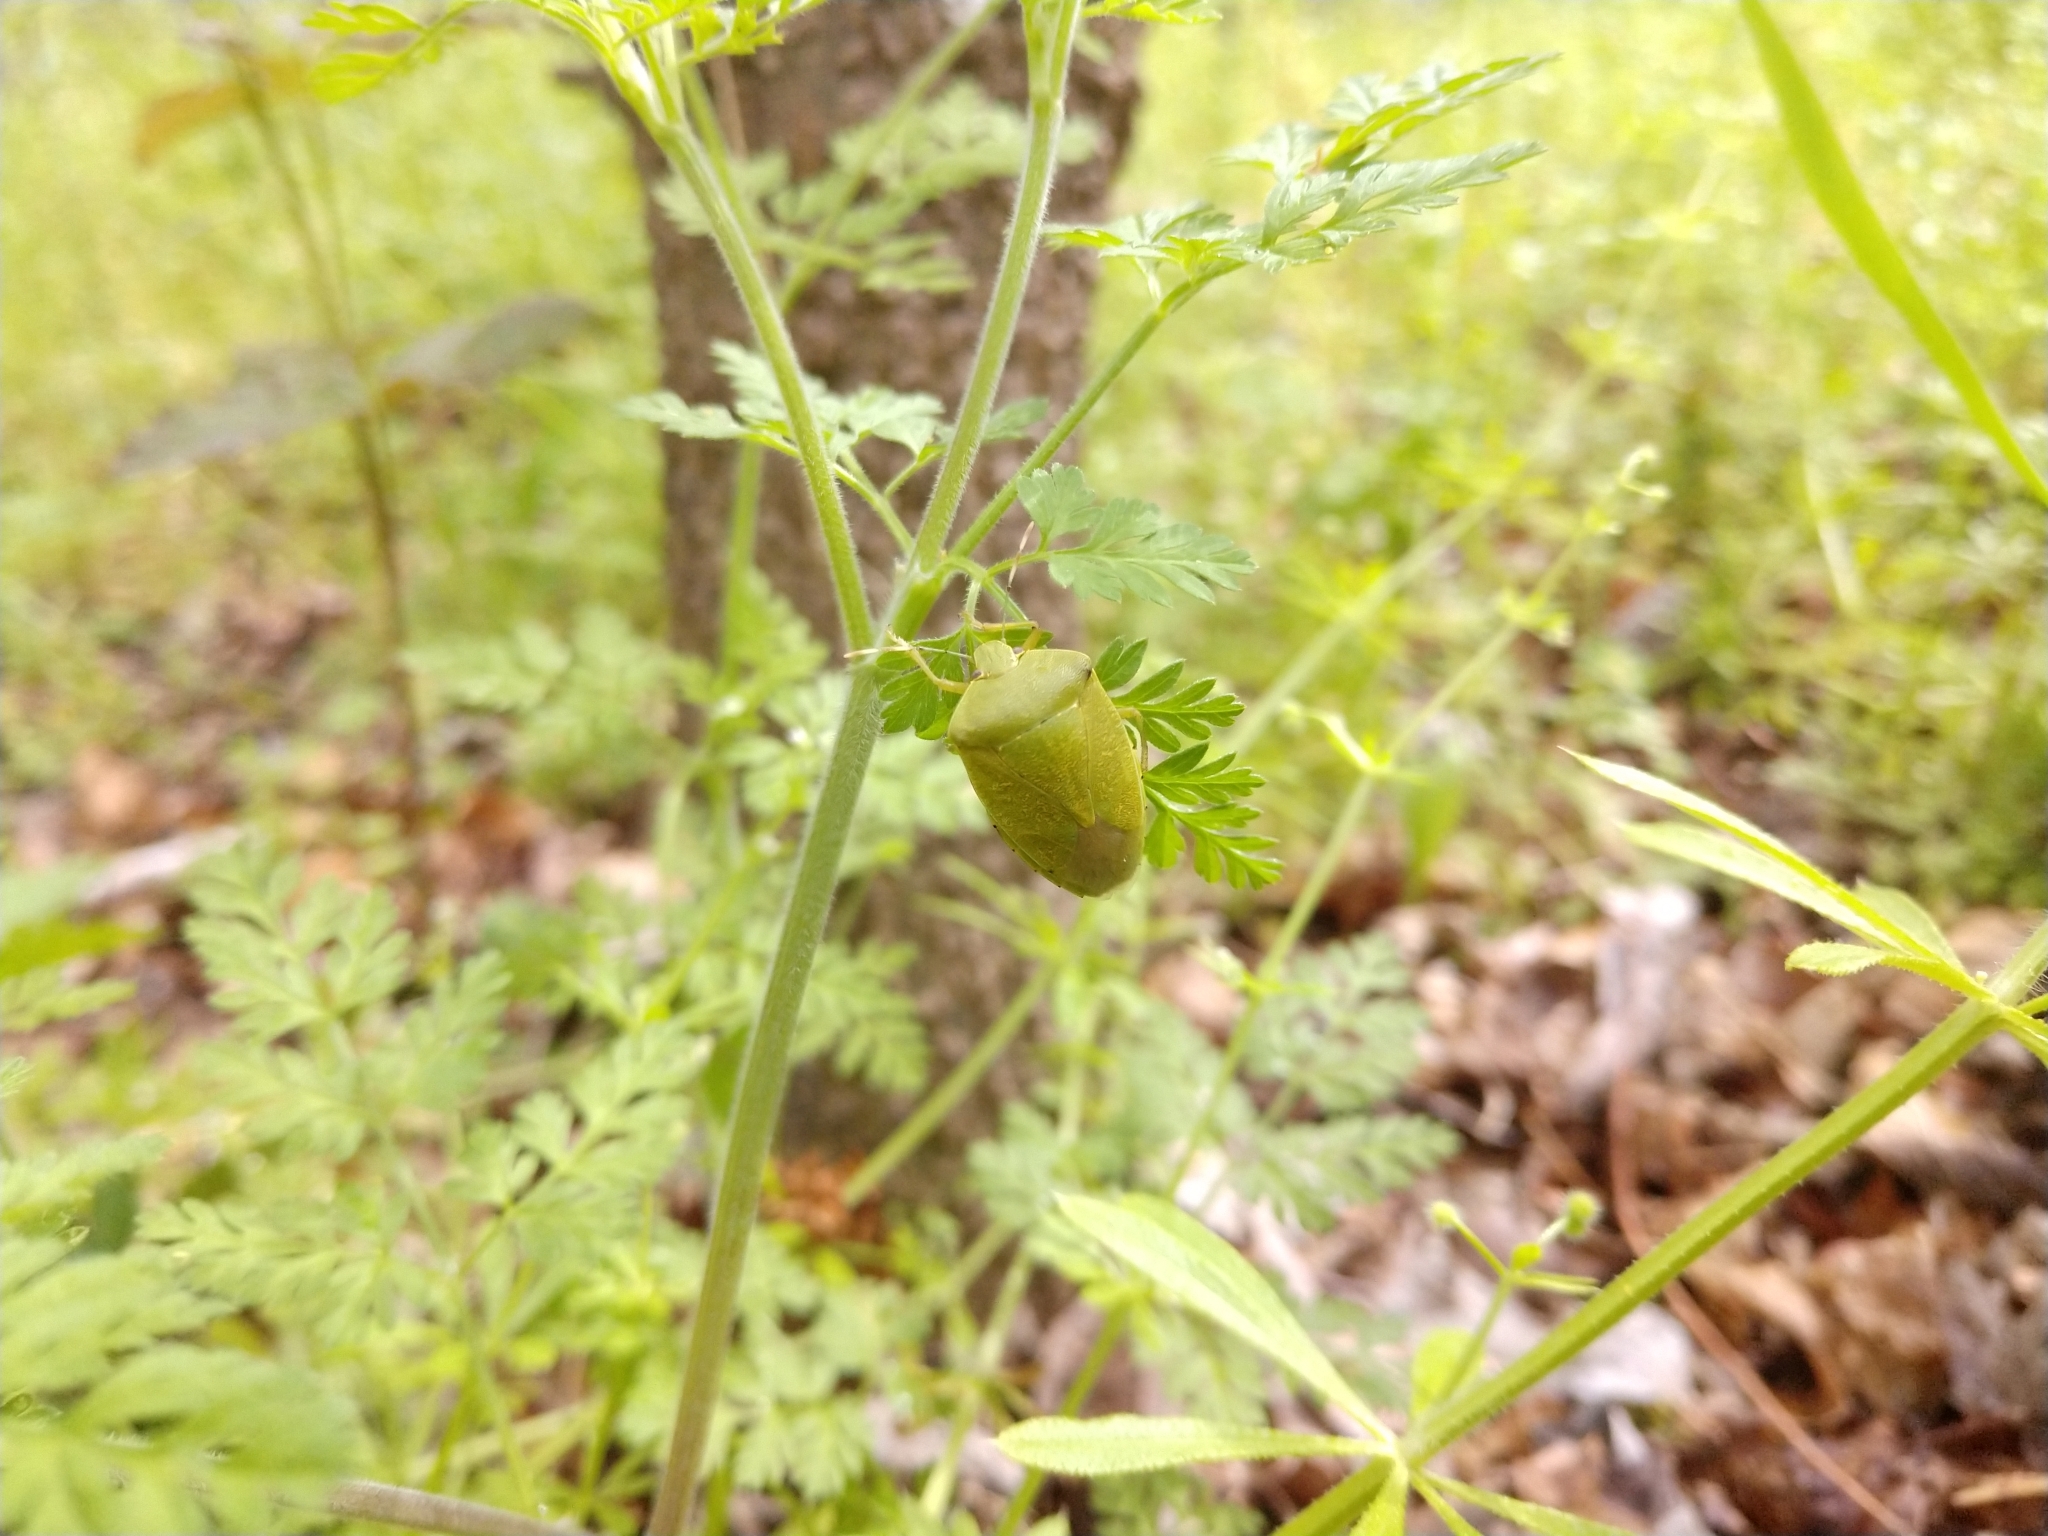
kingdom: Animalia
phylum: Arthropoda
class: Insecta
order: Hemiptera
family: Pentatomidae
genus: Chinavia
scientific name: Chinavia hilaris
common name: Green stink bug
